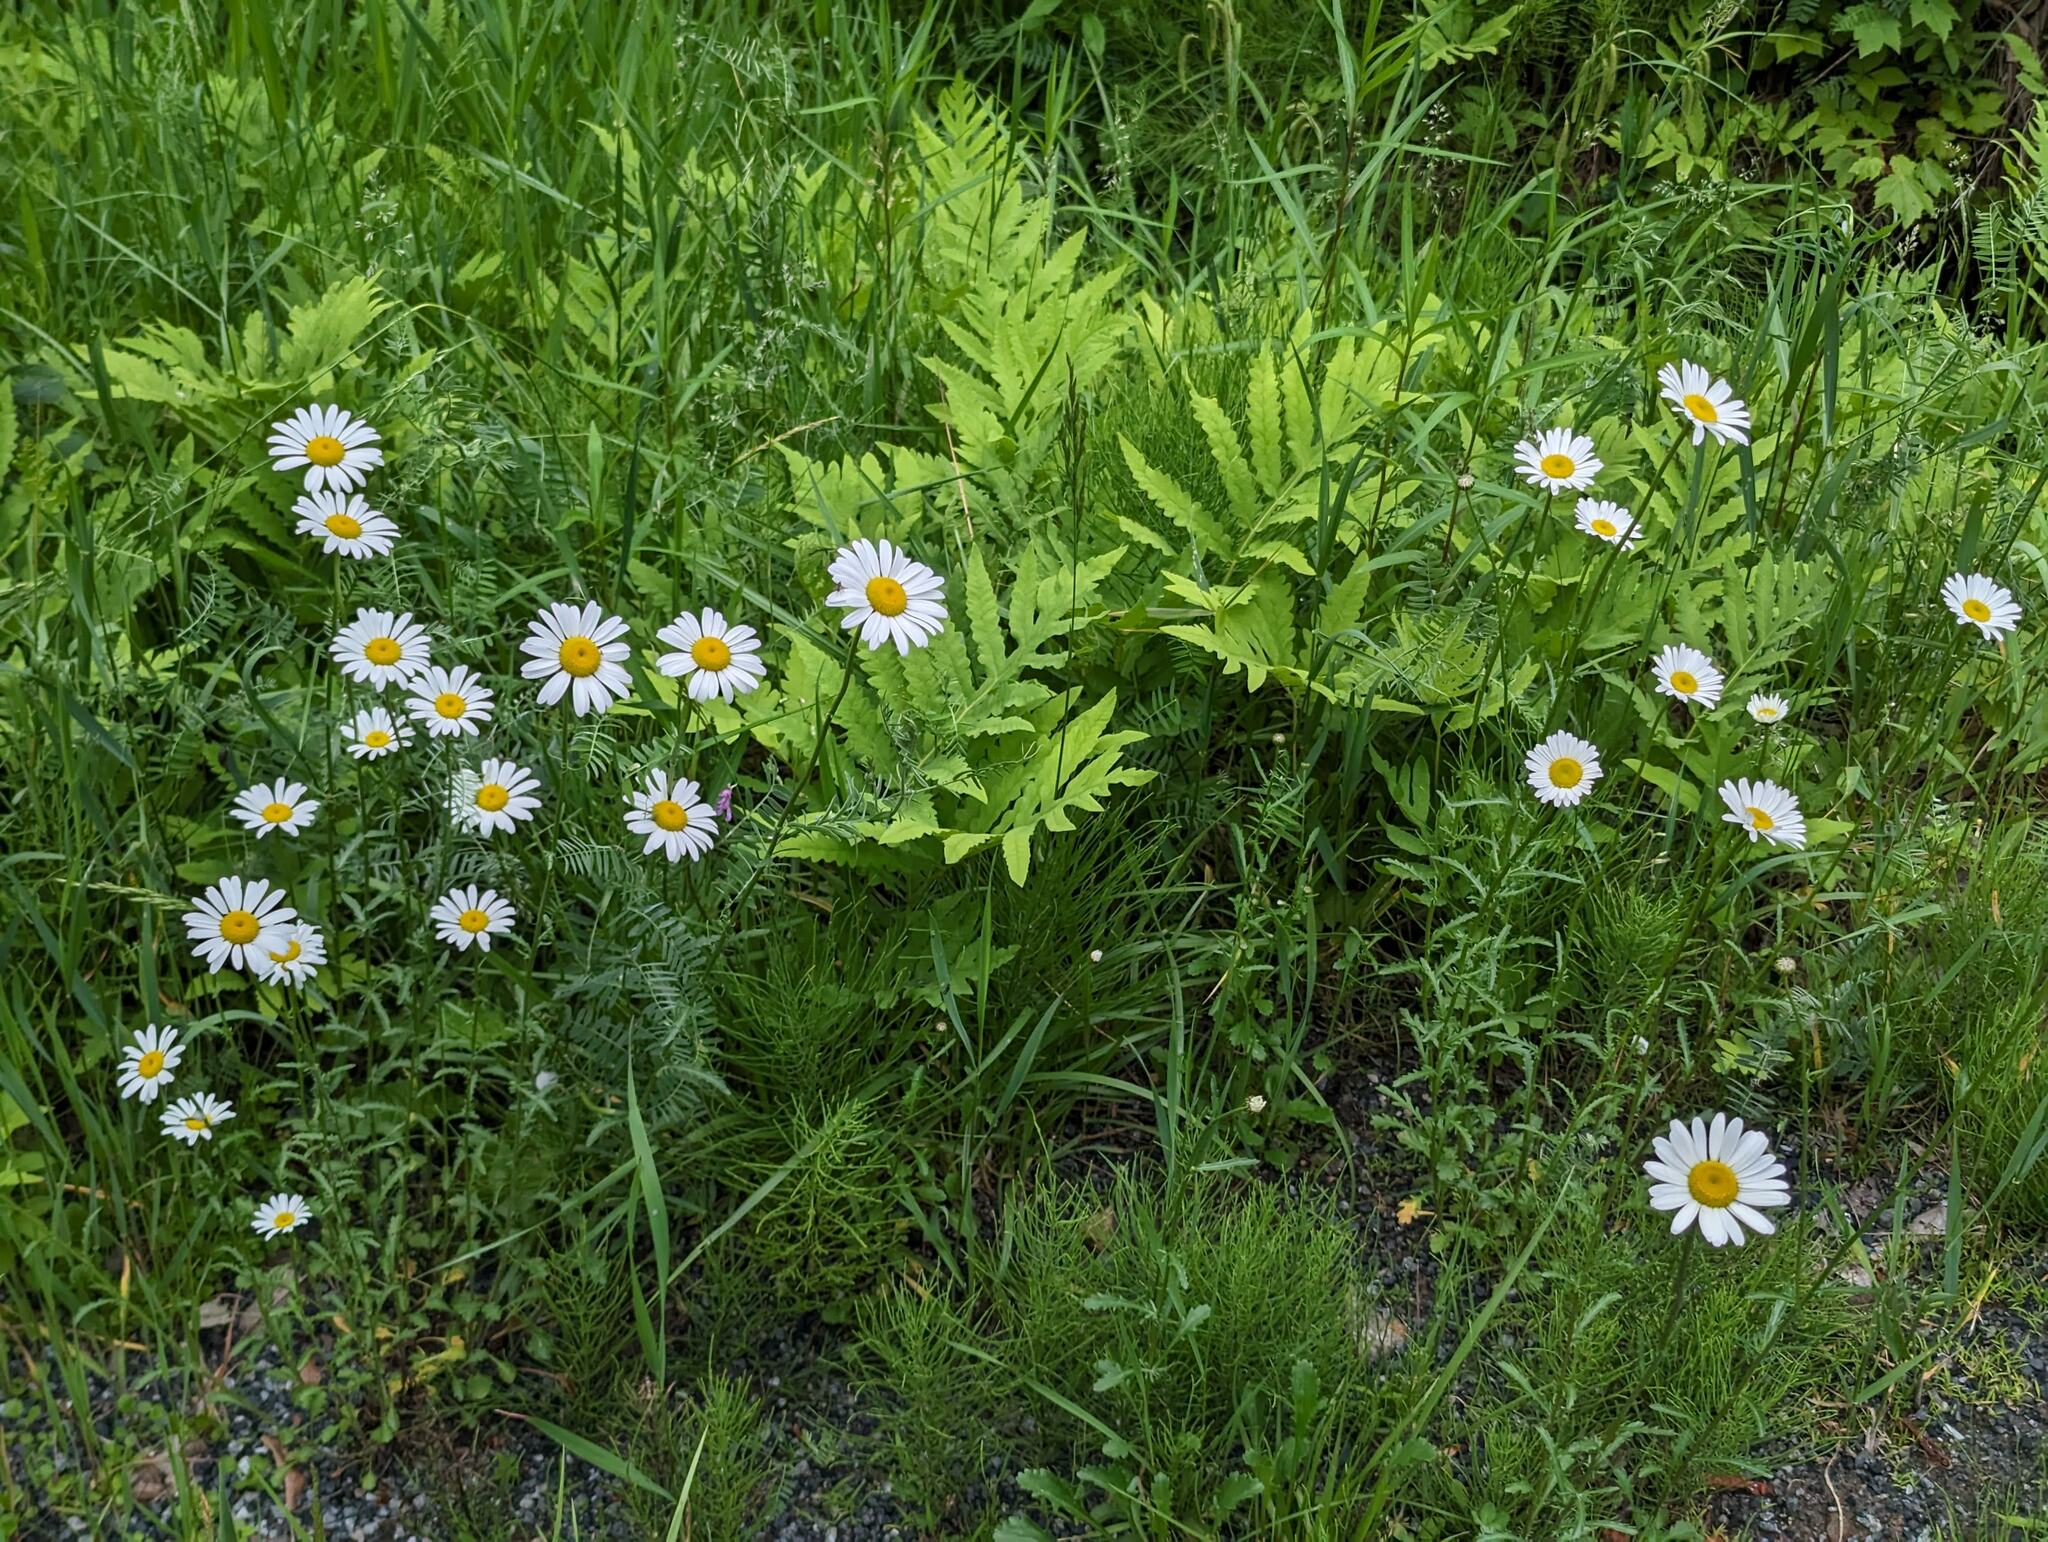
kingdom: Plantae
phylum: Tracheophyta
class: Polypodiopsida
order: Polypodiales
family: Onocleaceae
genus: Onoclea
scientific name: Onoclea sensibilis
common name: Sensitive fern
